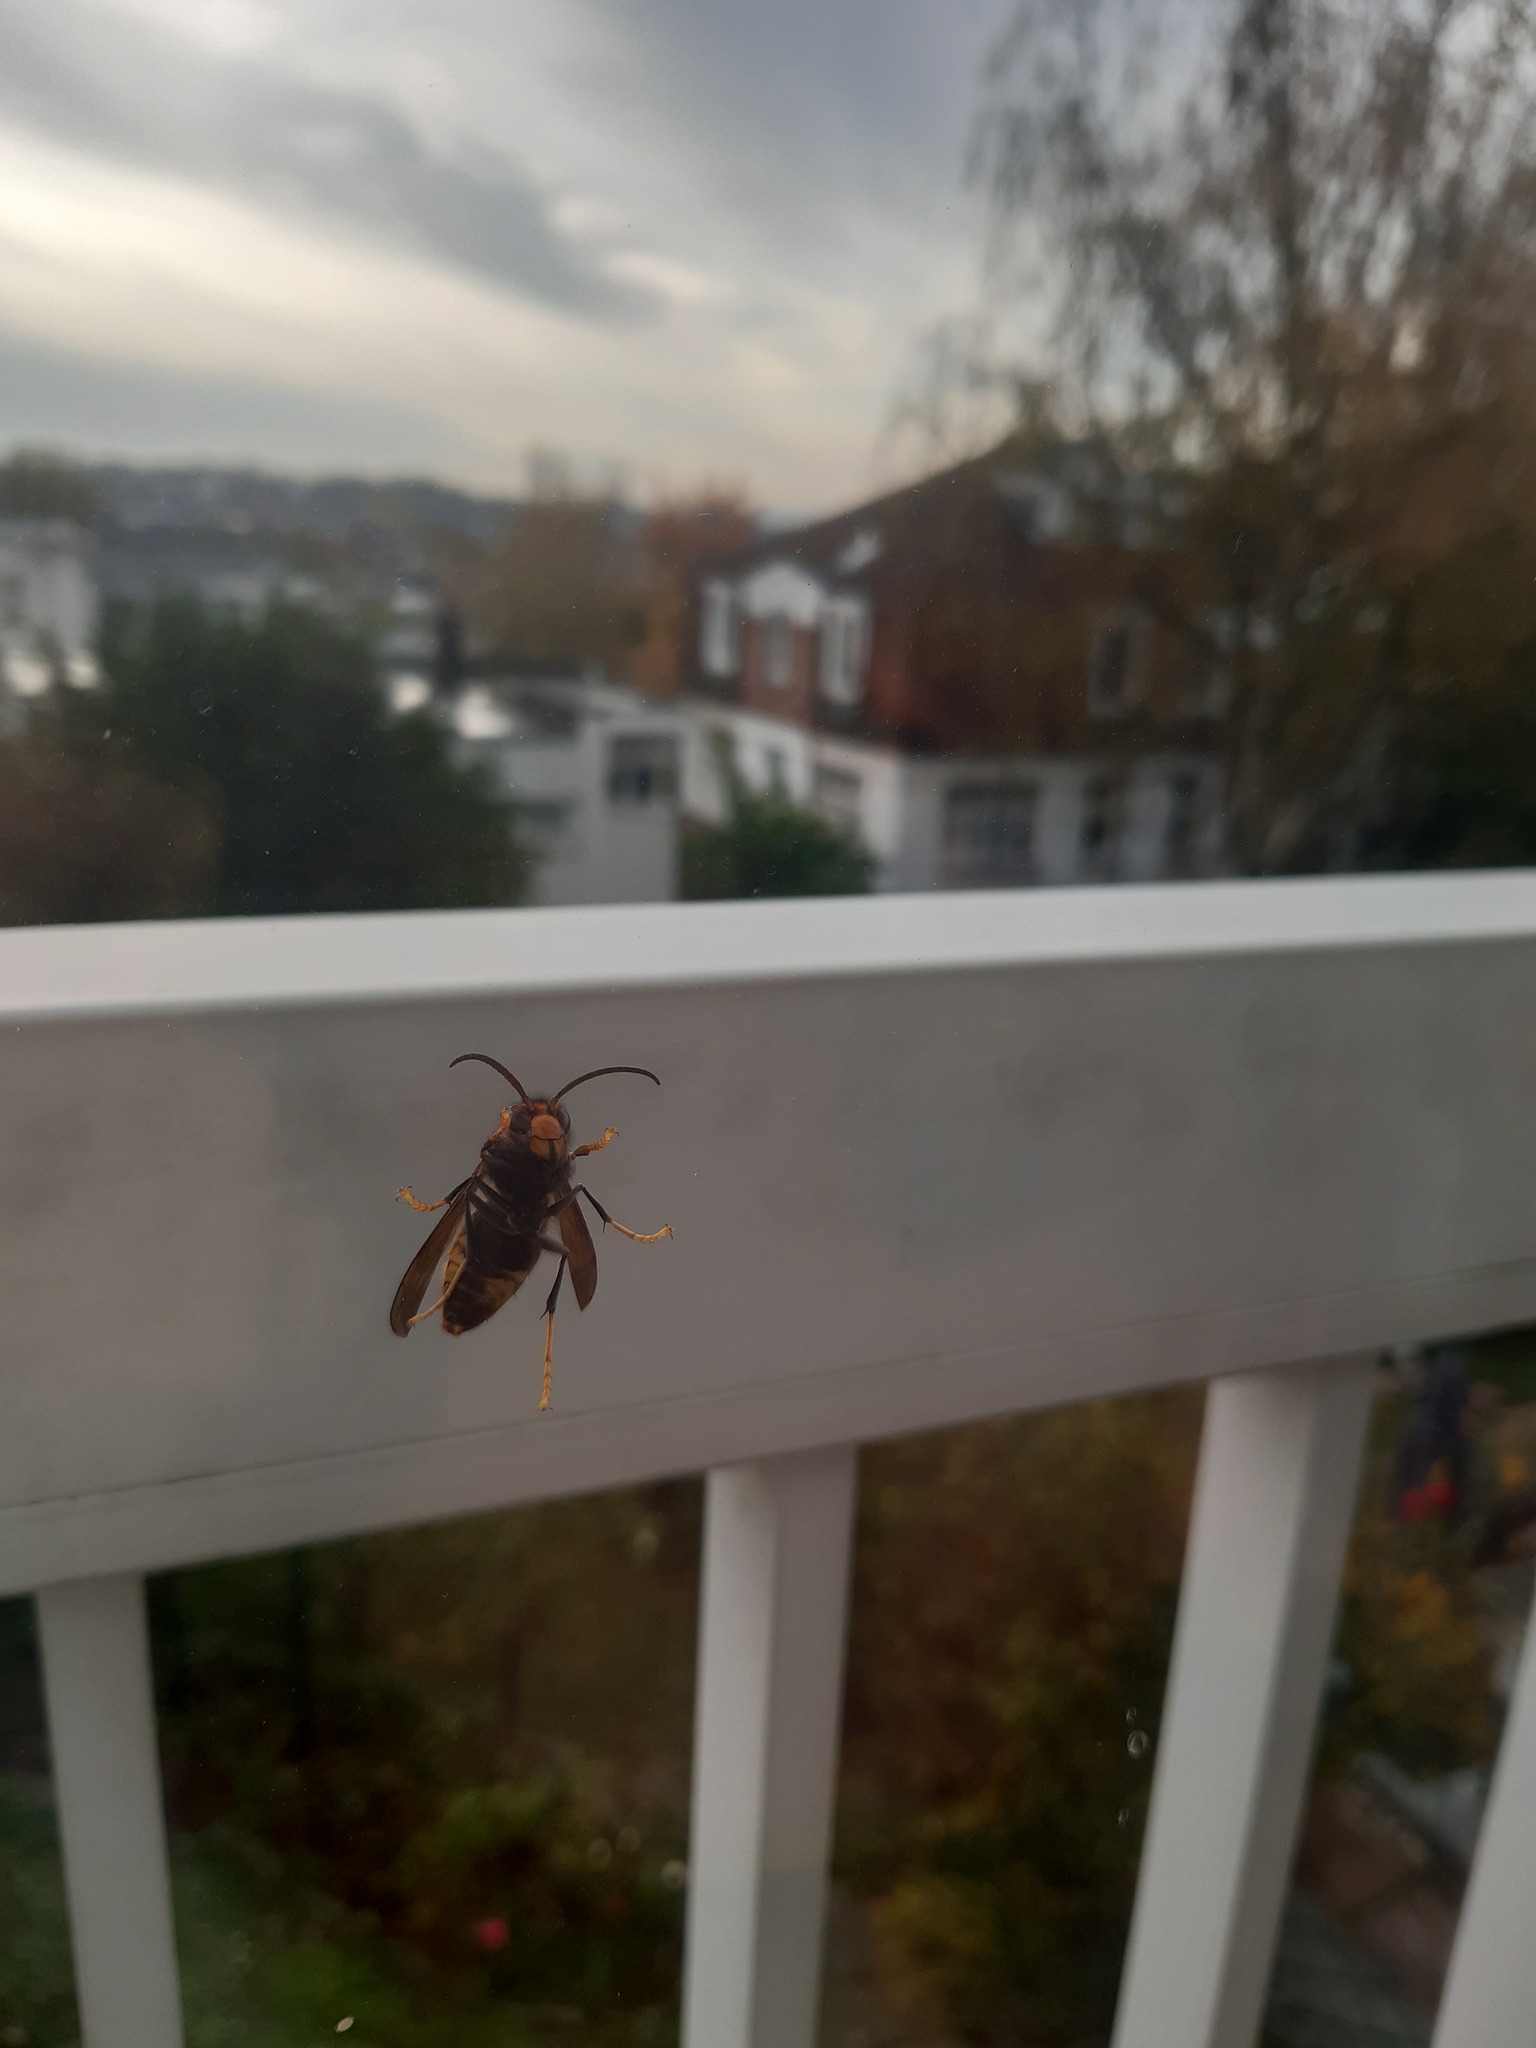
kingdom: Animalia
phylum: Arthropoda
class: Insecta
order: Hymenoptera
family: Vespidae
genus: Vespa
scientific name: Vespa velutina
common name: Asian hornet
